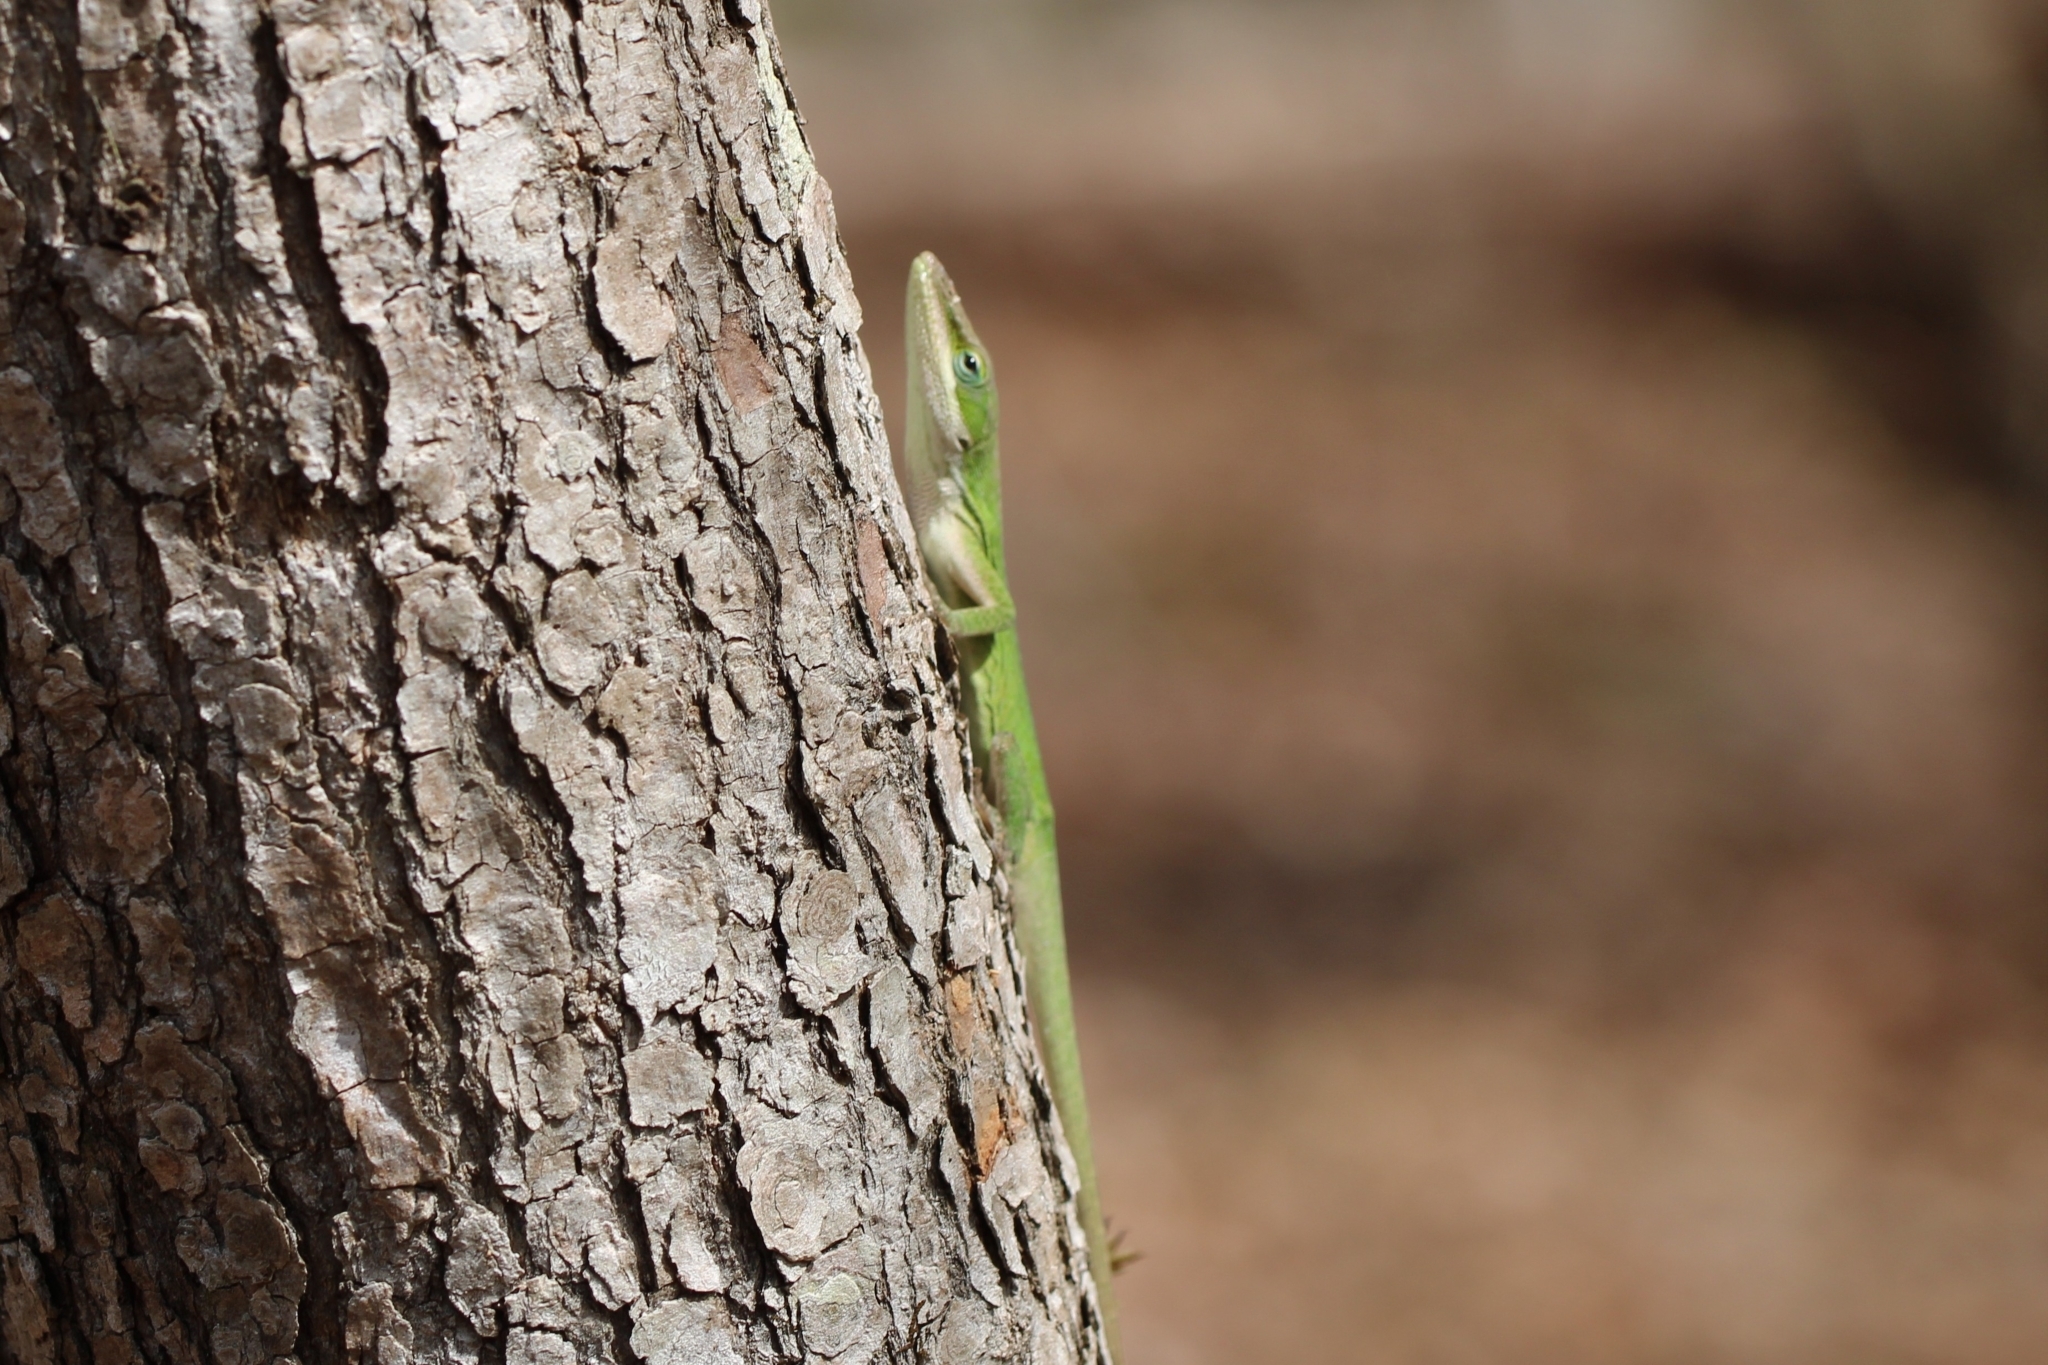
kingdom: Animalia
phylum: Chordata
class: Squamata
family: Dactyloidae
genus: Anolis
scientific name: Anolis carolinensis
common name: Green anole
